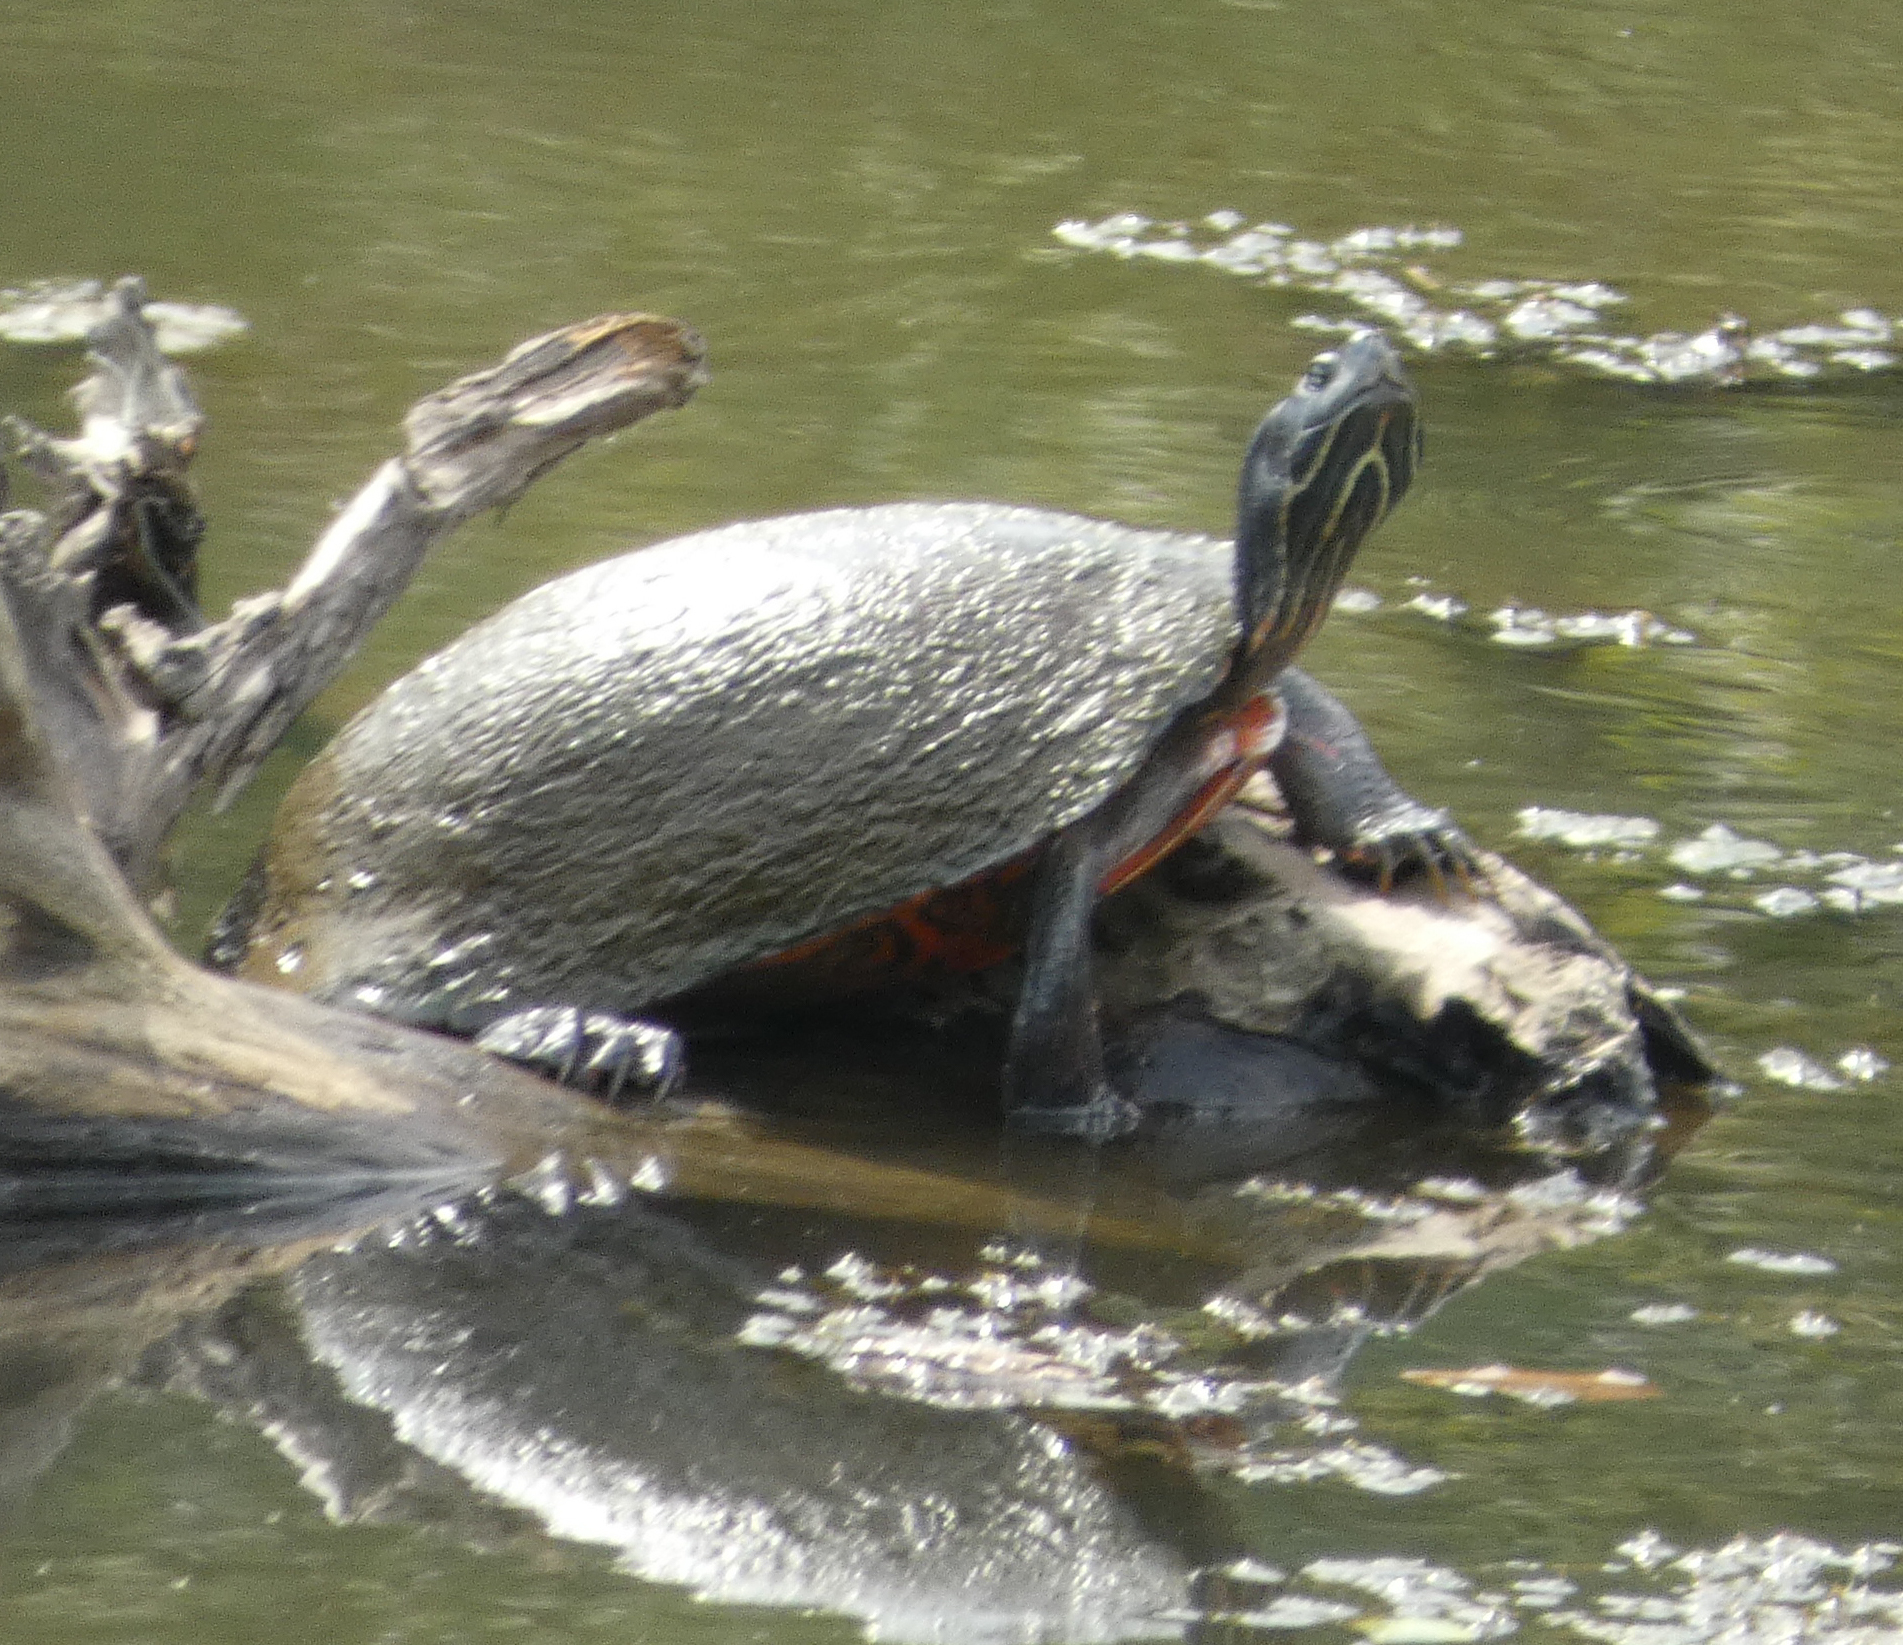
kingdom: Animalia
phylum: Chordata
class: Testudines
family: Emydidae
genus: Pseudemys
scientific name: Pseudemys rubriventris
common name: American red-bellied turtle
